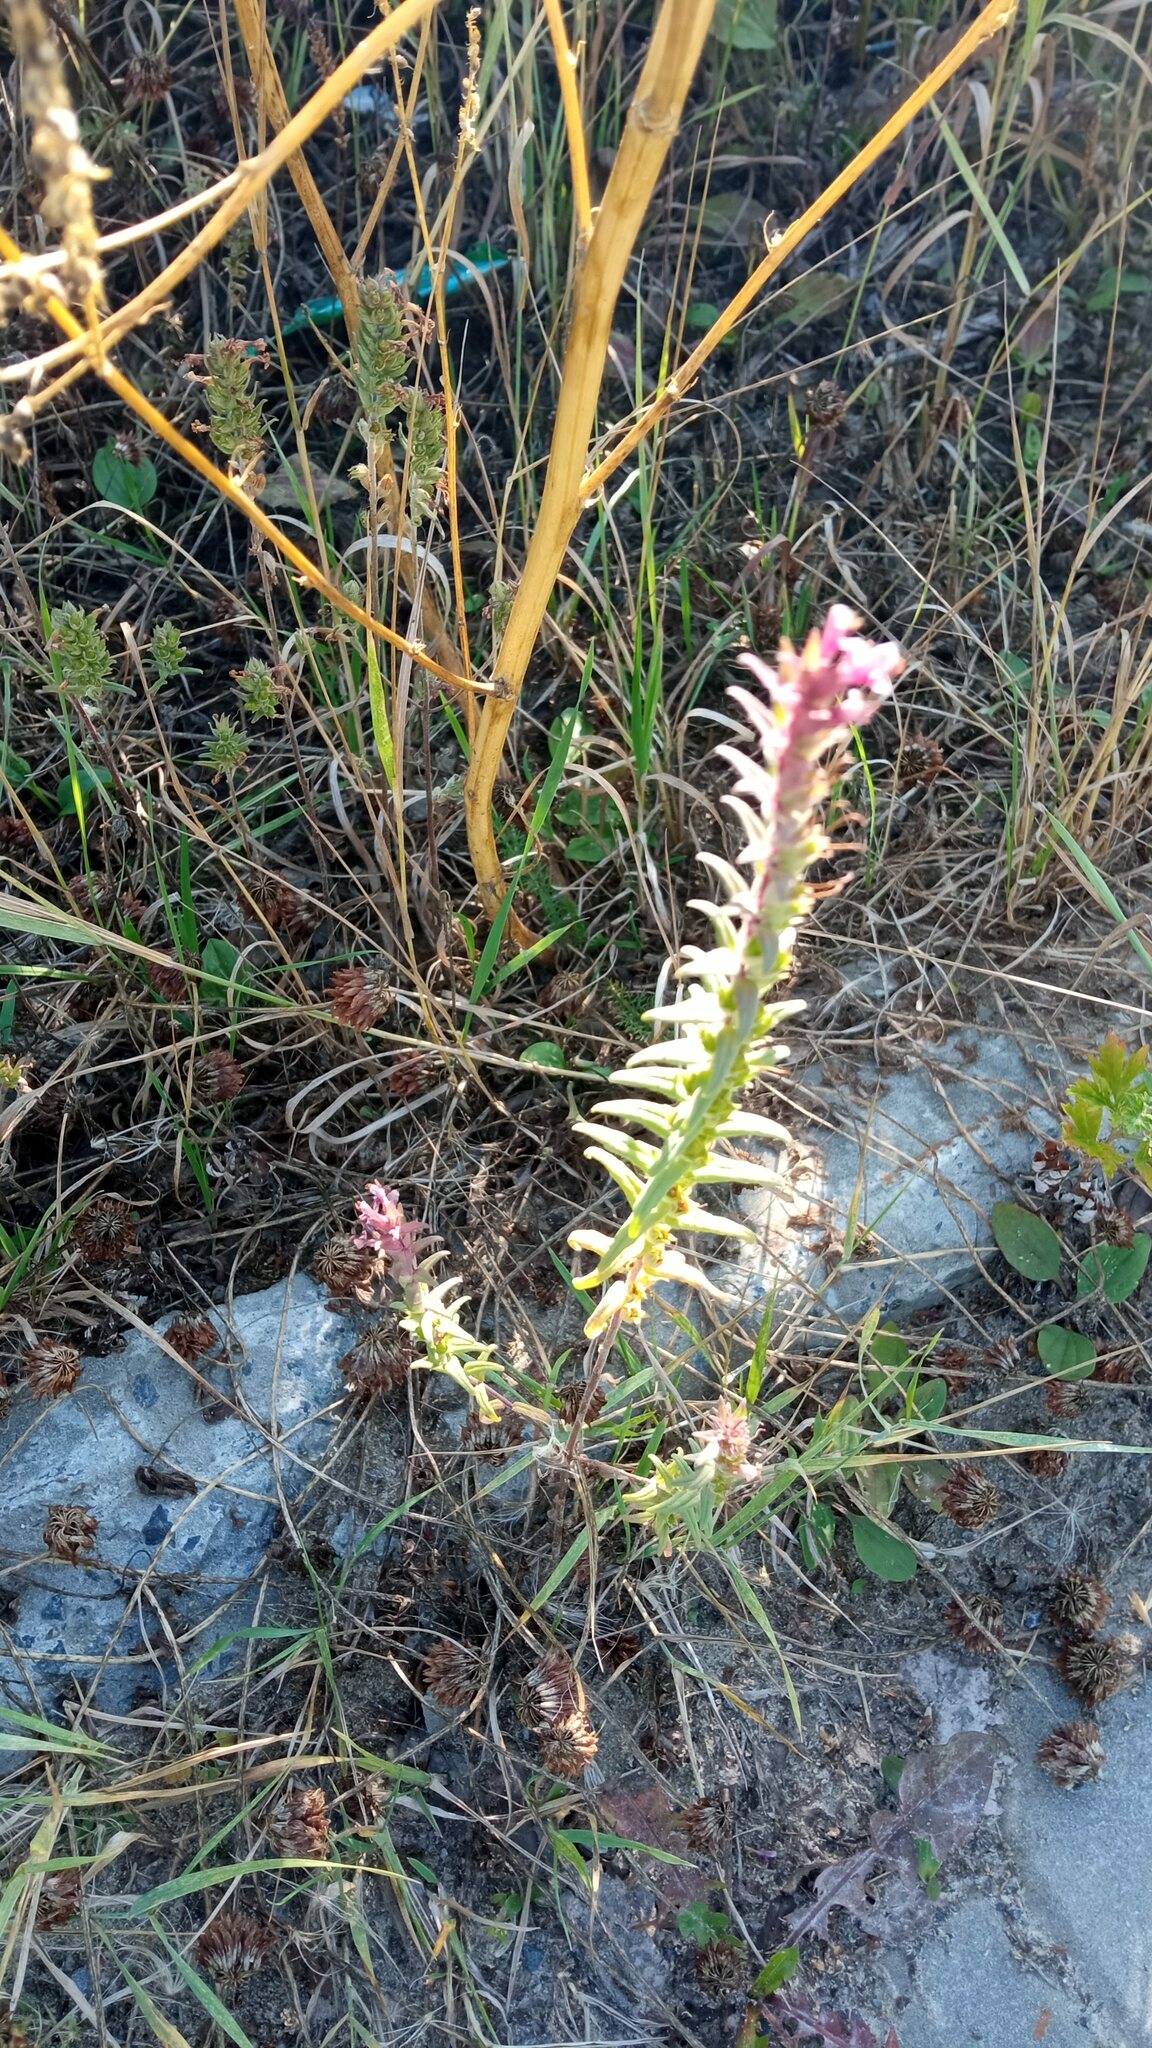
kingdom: Plantae
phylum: Tracheophyta
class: Magnoliopsida
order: Lamiales
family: Orobanchaceae
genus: Odontites
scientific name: Odontites vulgaris
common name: Broomrape
